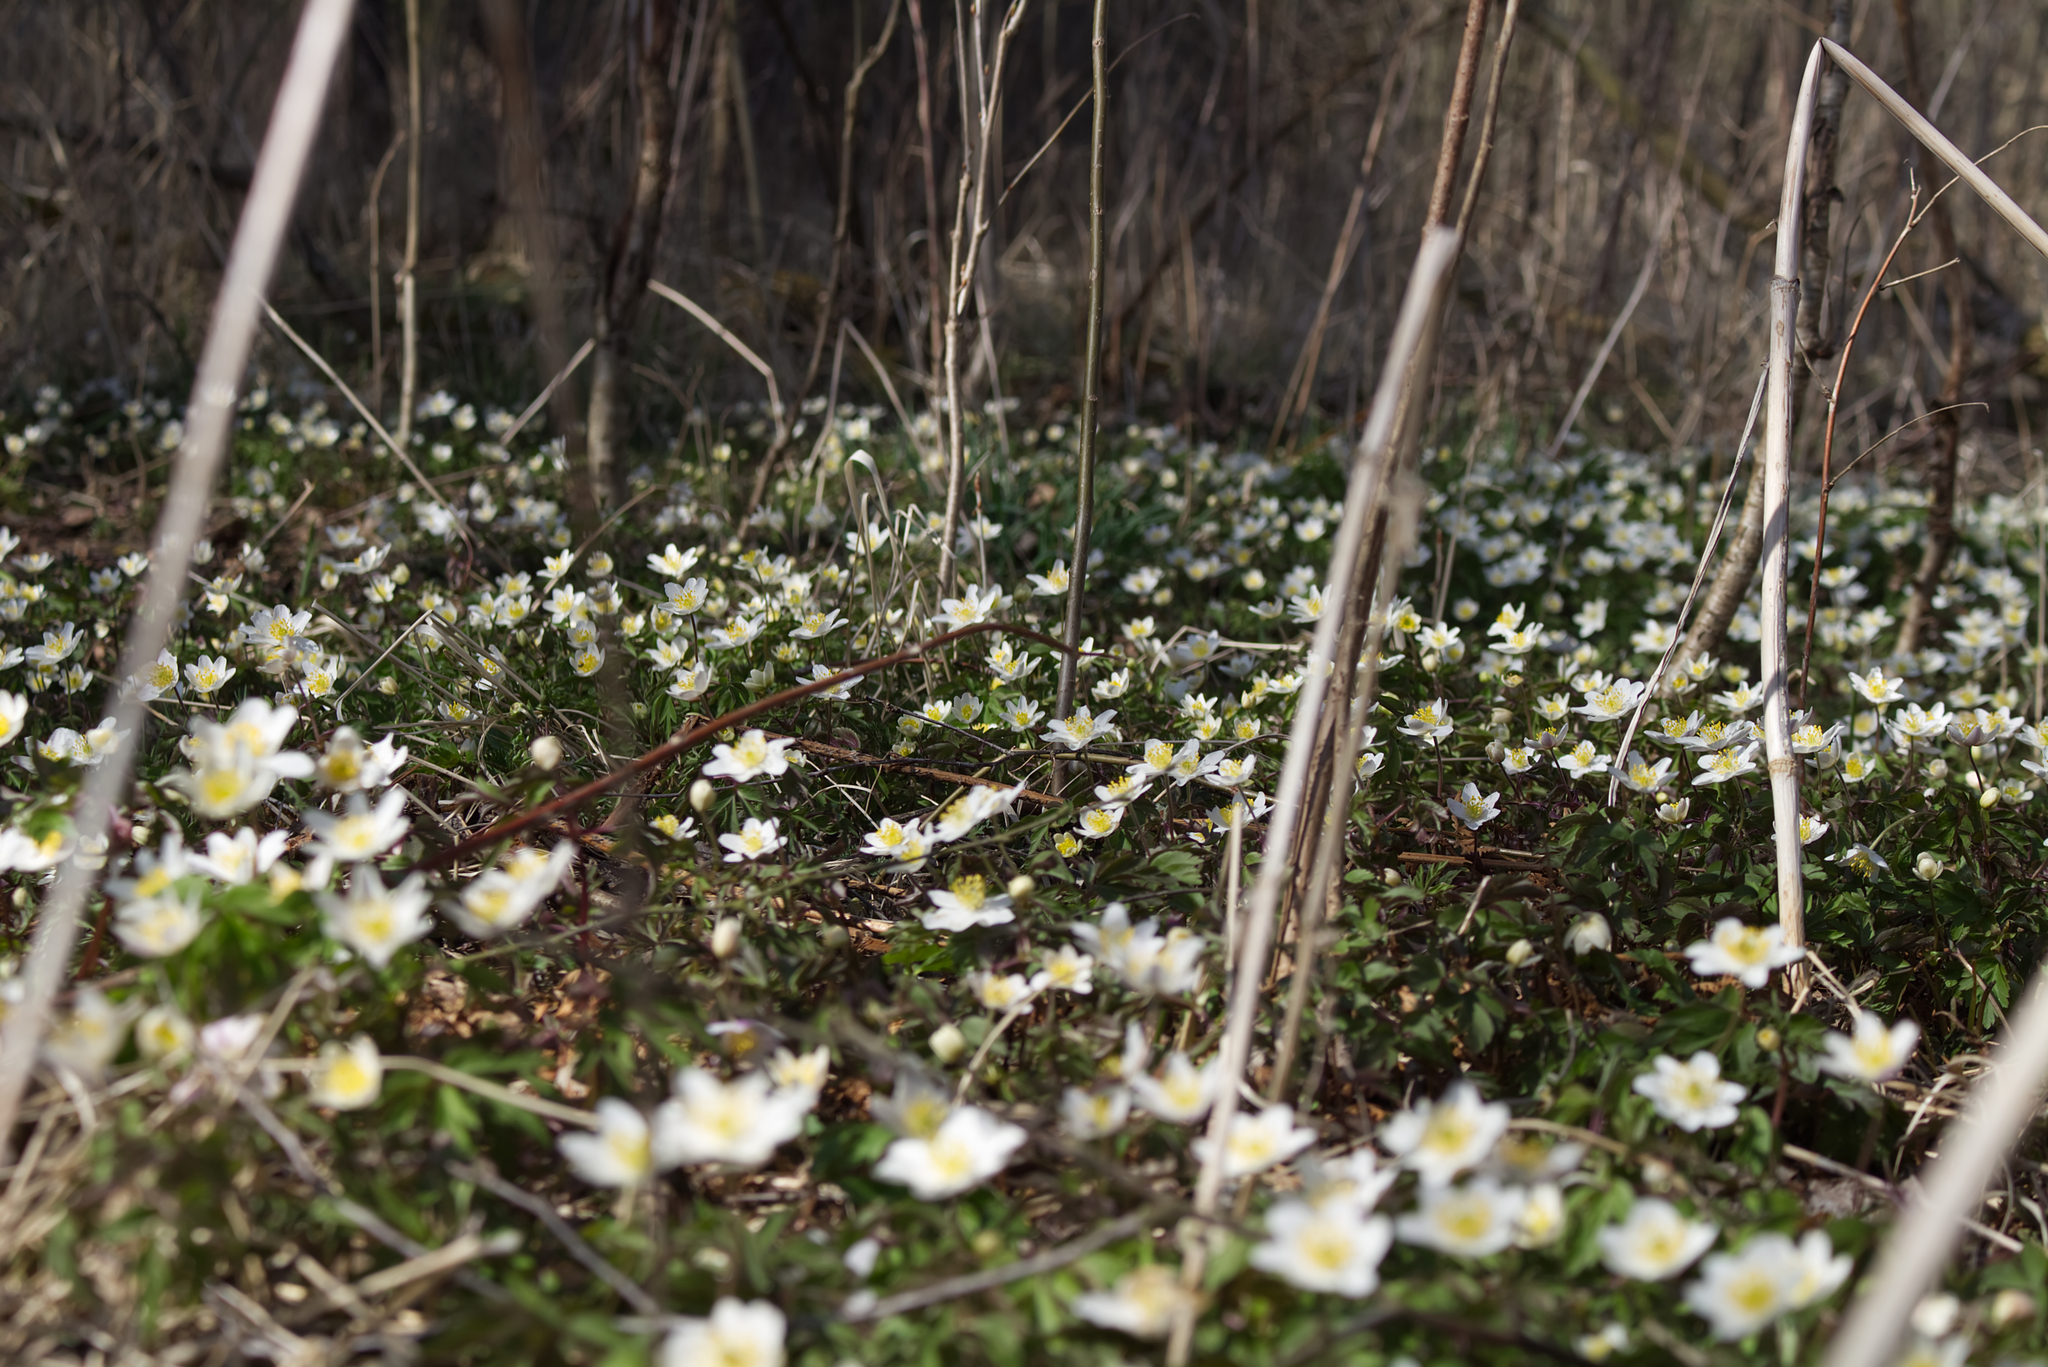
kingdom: Plantae
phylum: Tracheophyta
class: Magnoliopsida
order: Ranunculales
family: Ranunculaceae
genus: Anemone
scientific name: Anemone nemorosa
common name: Wood anemone
